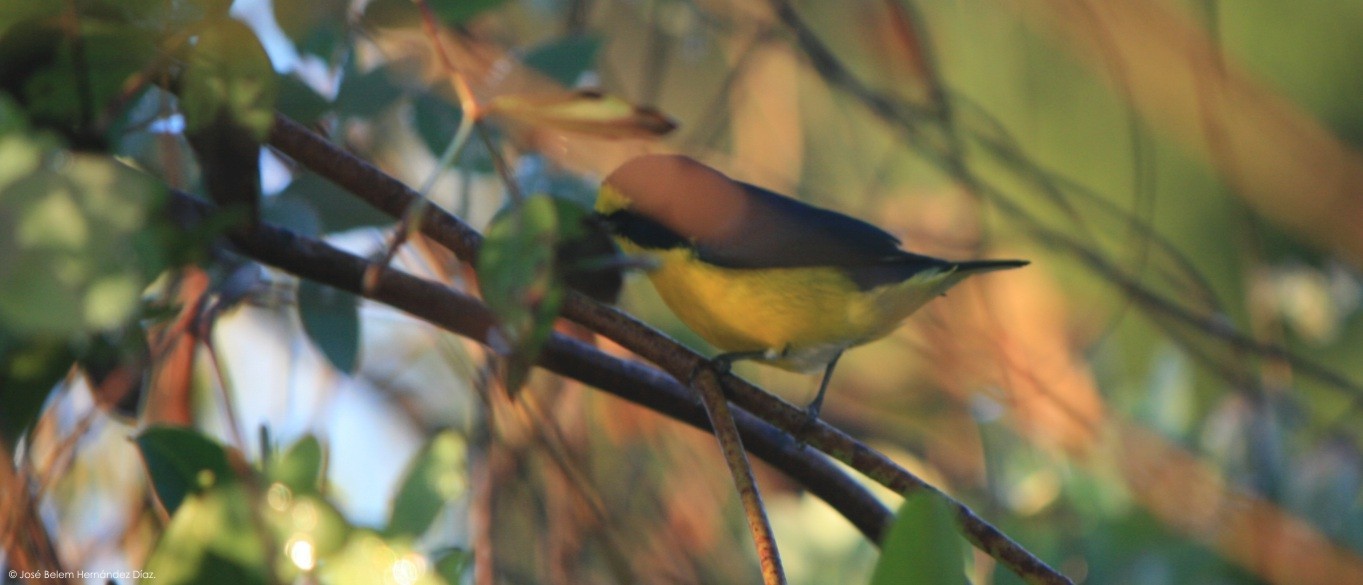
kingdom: Animalia
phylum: Chordata
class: Aves
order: Passeriformes
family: Fringillidae
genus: Euphonia
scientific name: Euphonia hirundinacea
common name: Yellow-throated euphonia
